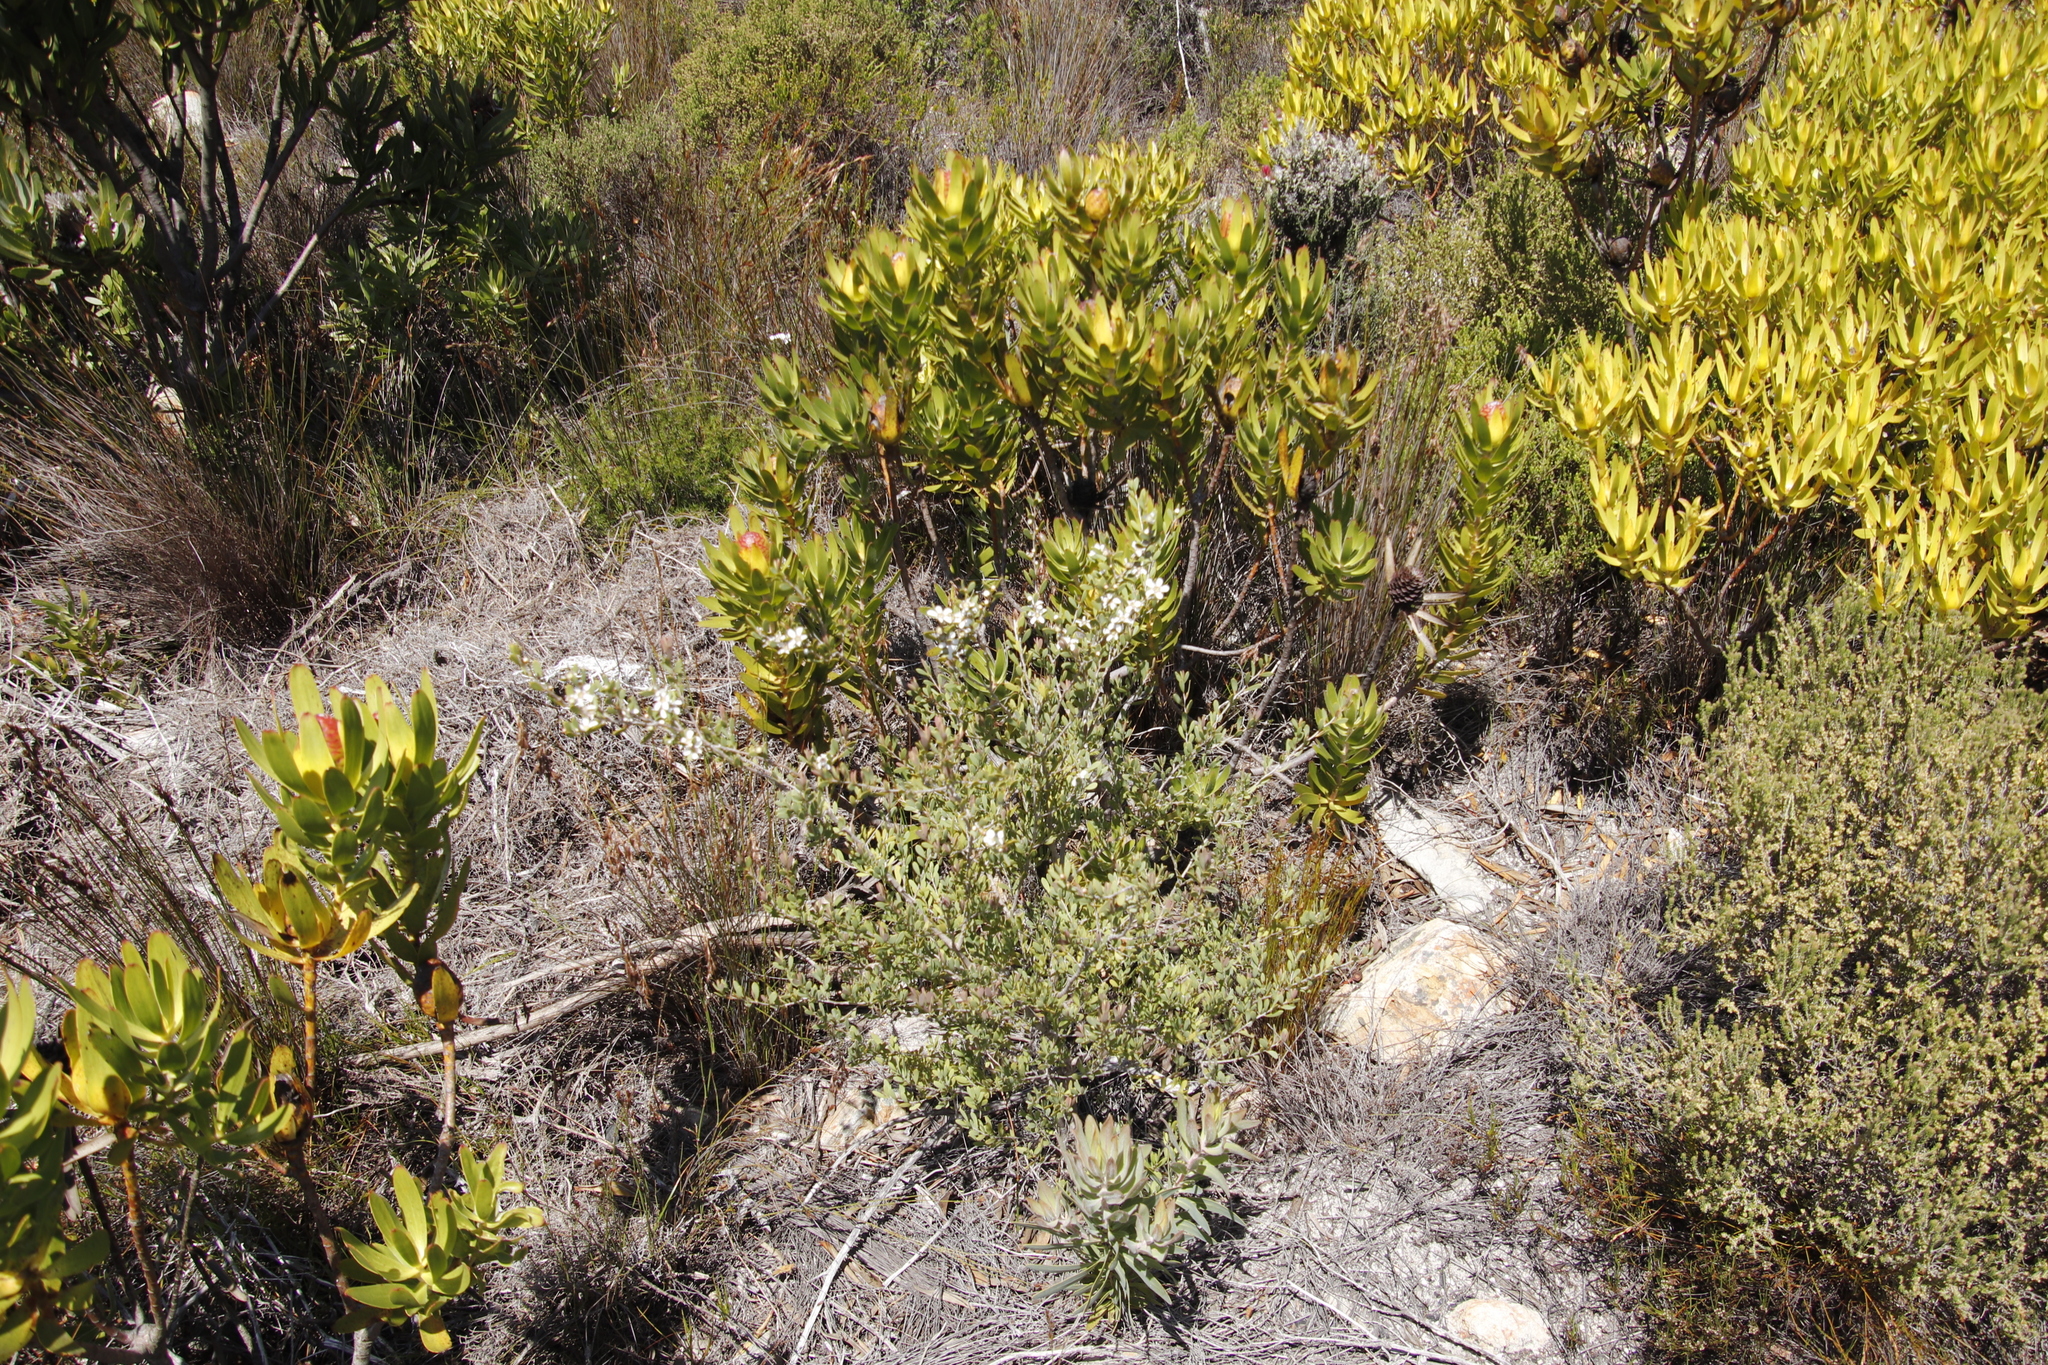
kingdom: Plantae
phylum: Tracheophyta
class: Magnoliopsida
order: Myrtales
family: Myrtaceae
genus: Leptospermum
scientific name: Leptospermum laevigatum
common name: Australian teatree
